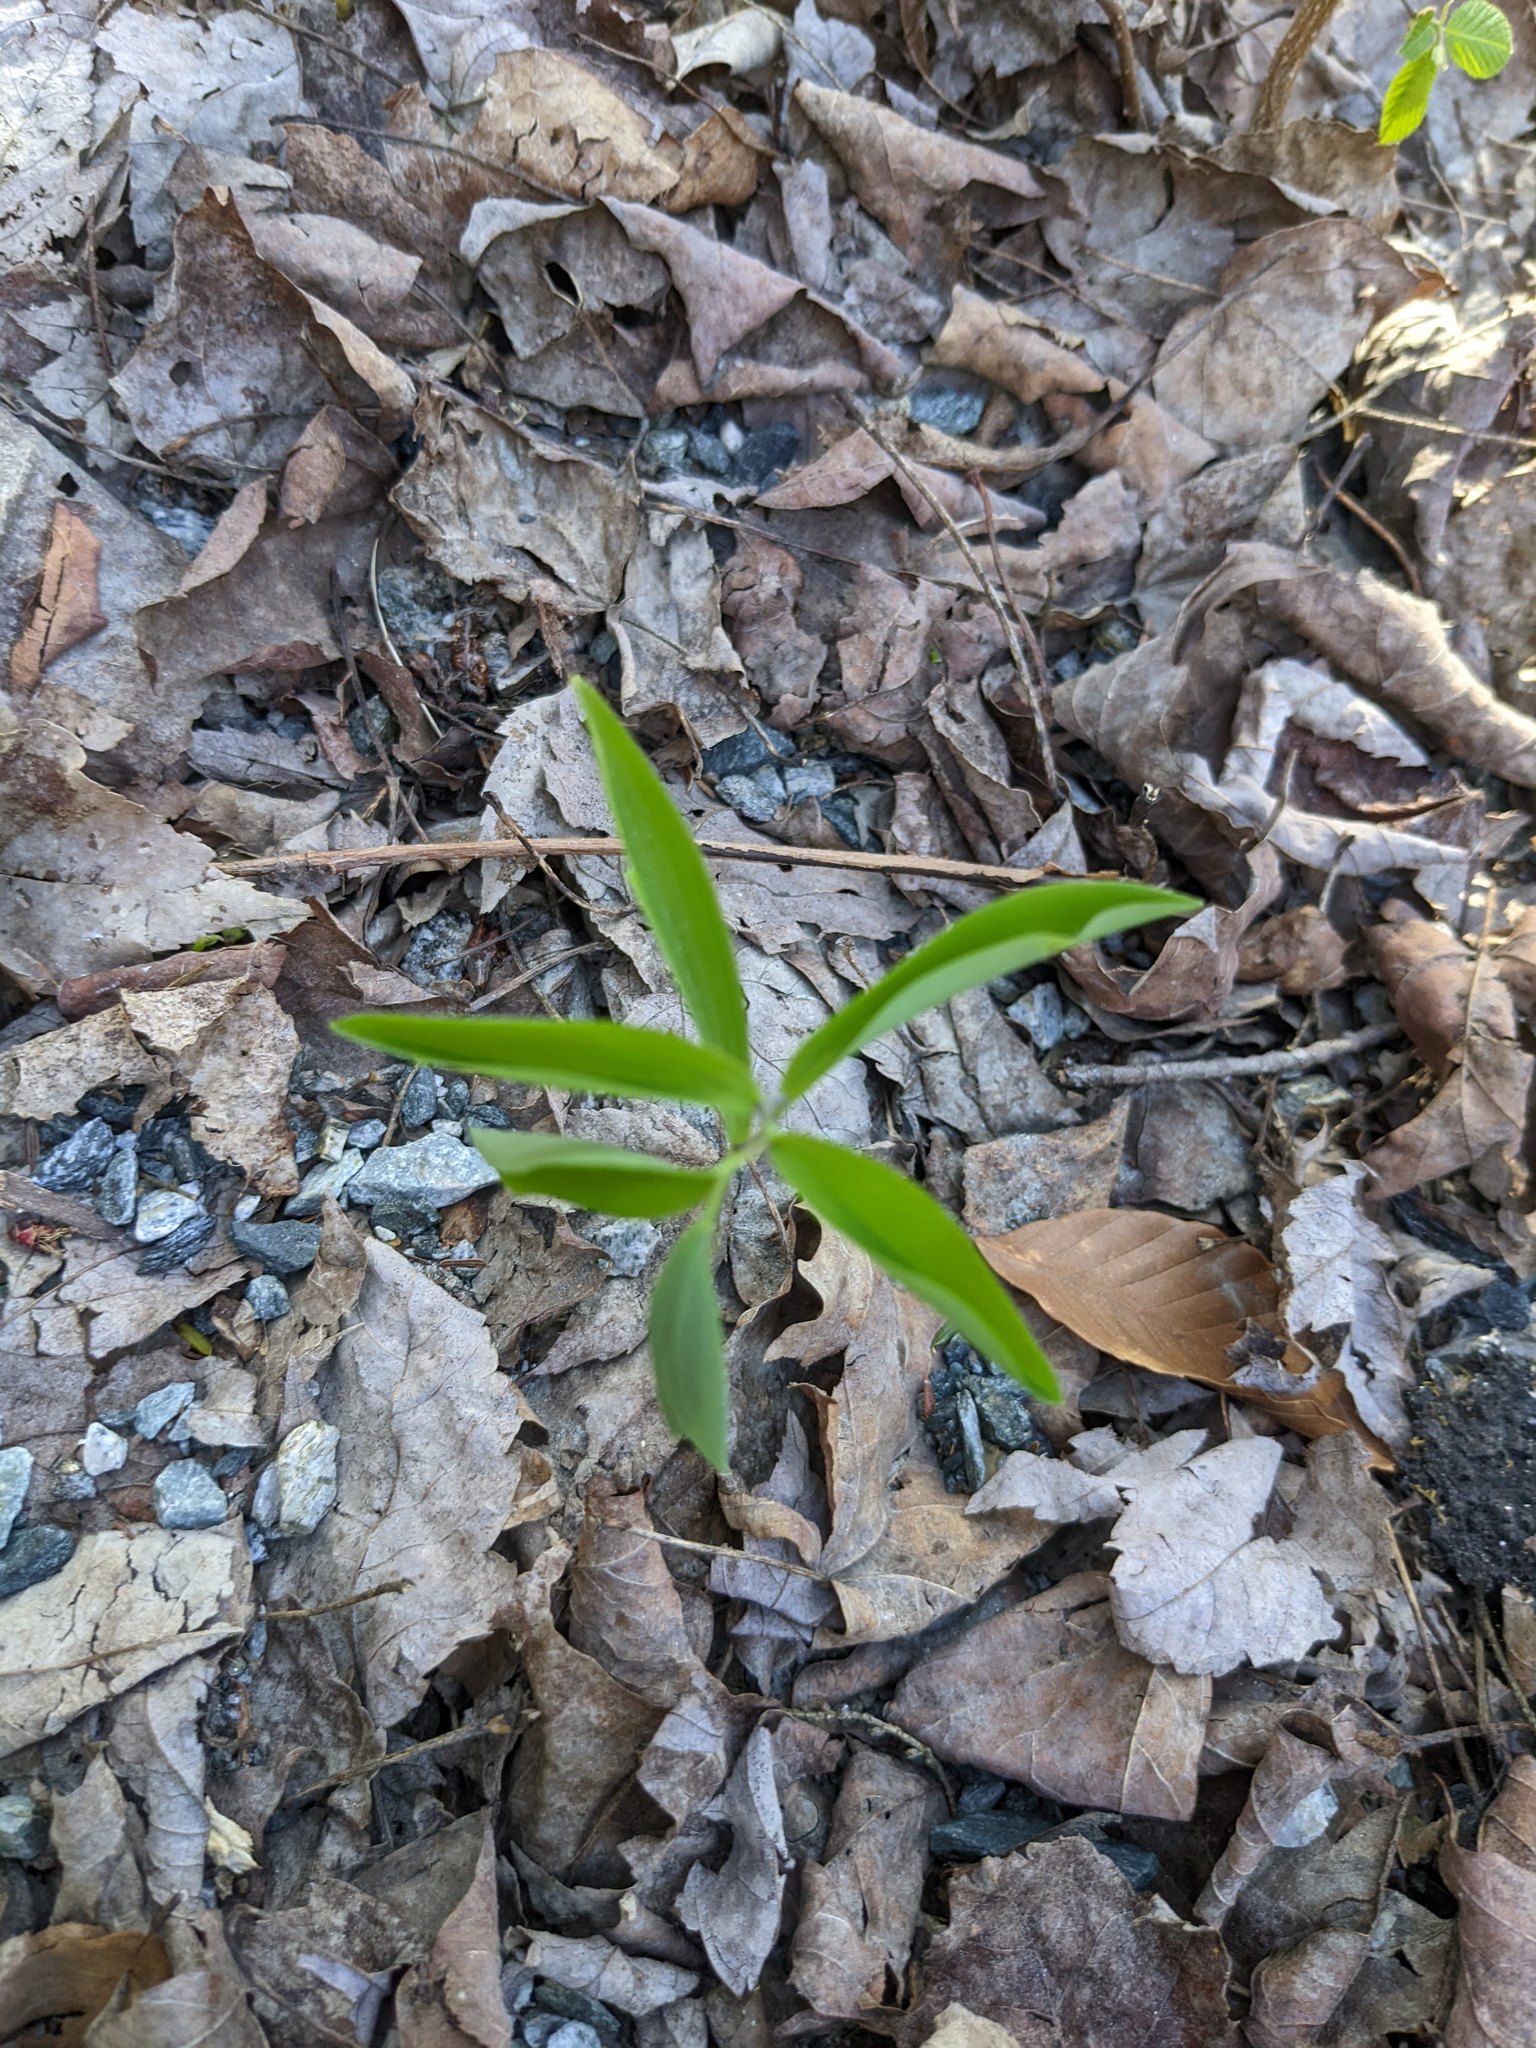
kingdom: Plantae
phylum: Tracheophyta
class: Liliopsida
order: Liliales
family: Colchicaceae
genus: Uvularia
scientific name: Uvularia sessilifolia
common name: Straw-lily
